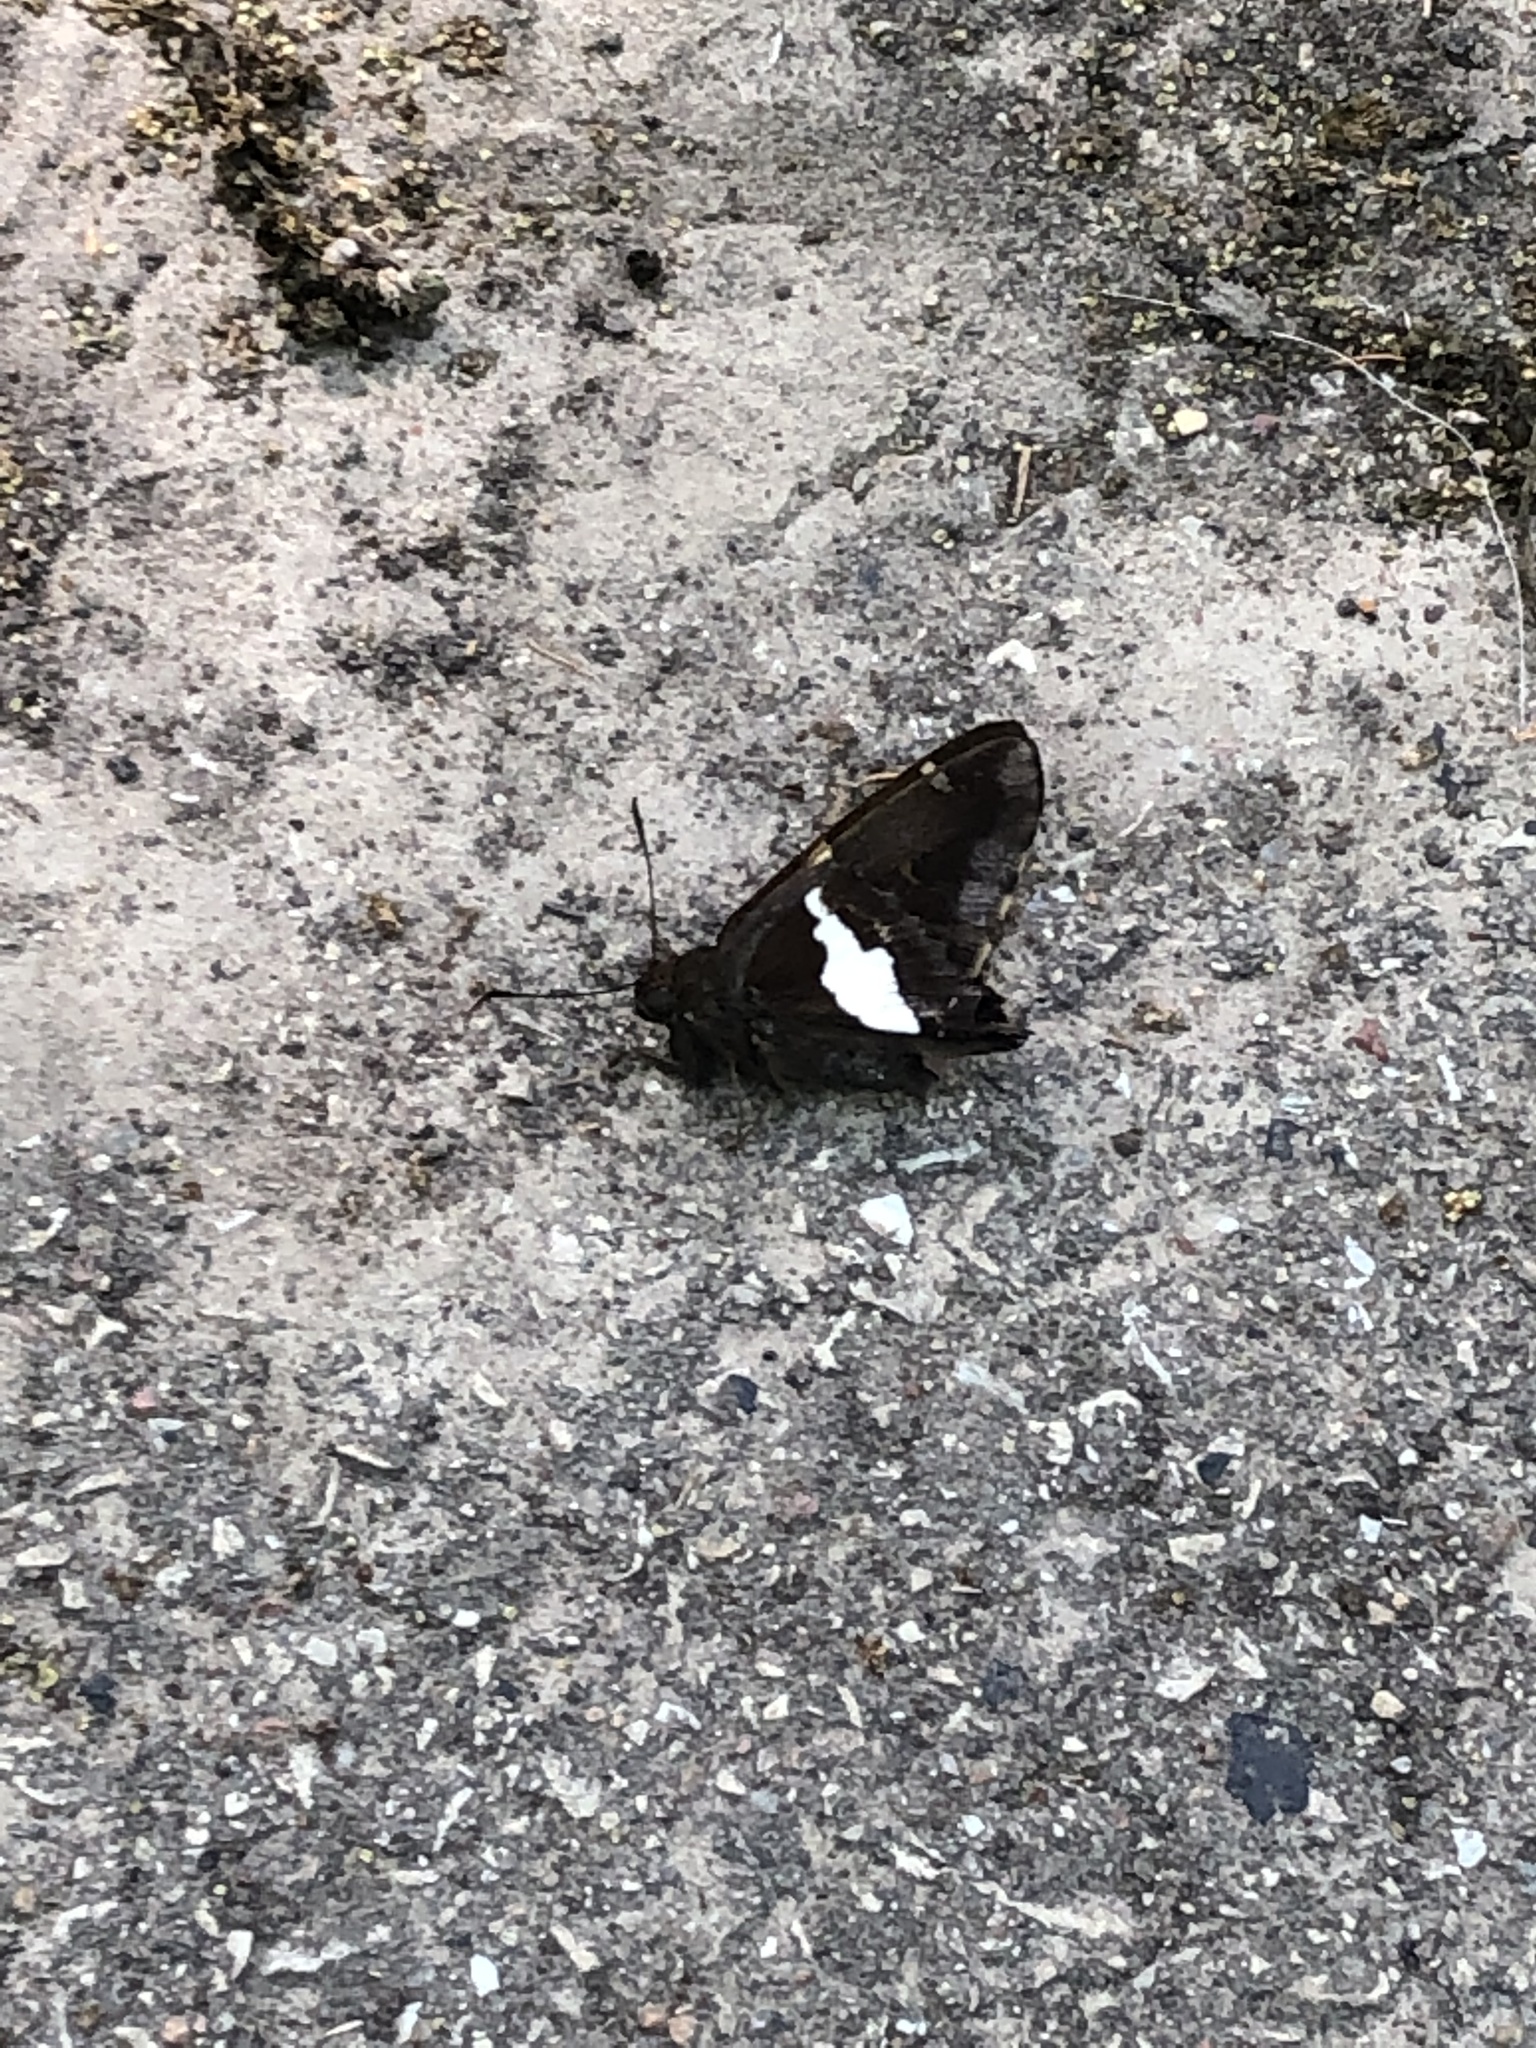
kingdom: Animalia
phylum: Arthropoda
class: Insecta
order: Lepidoptera
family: Hesperiidae
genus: Epargyreus
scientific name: Epargyreus clarus
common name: Silver-spotted skipper
